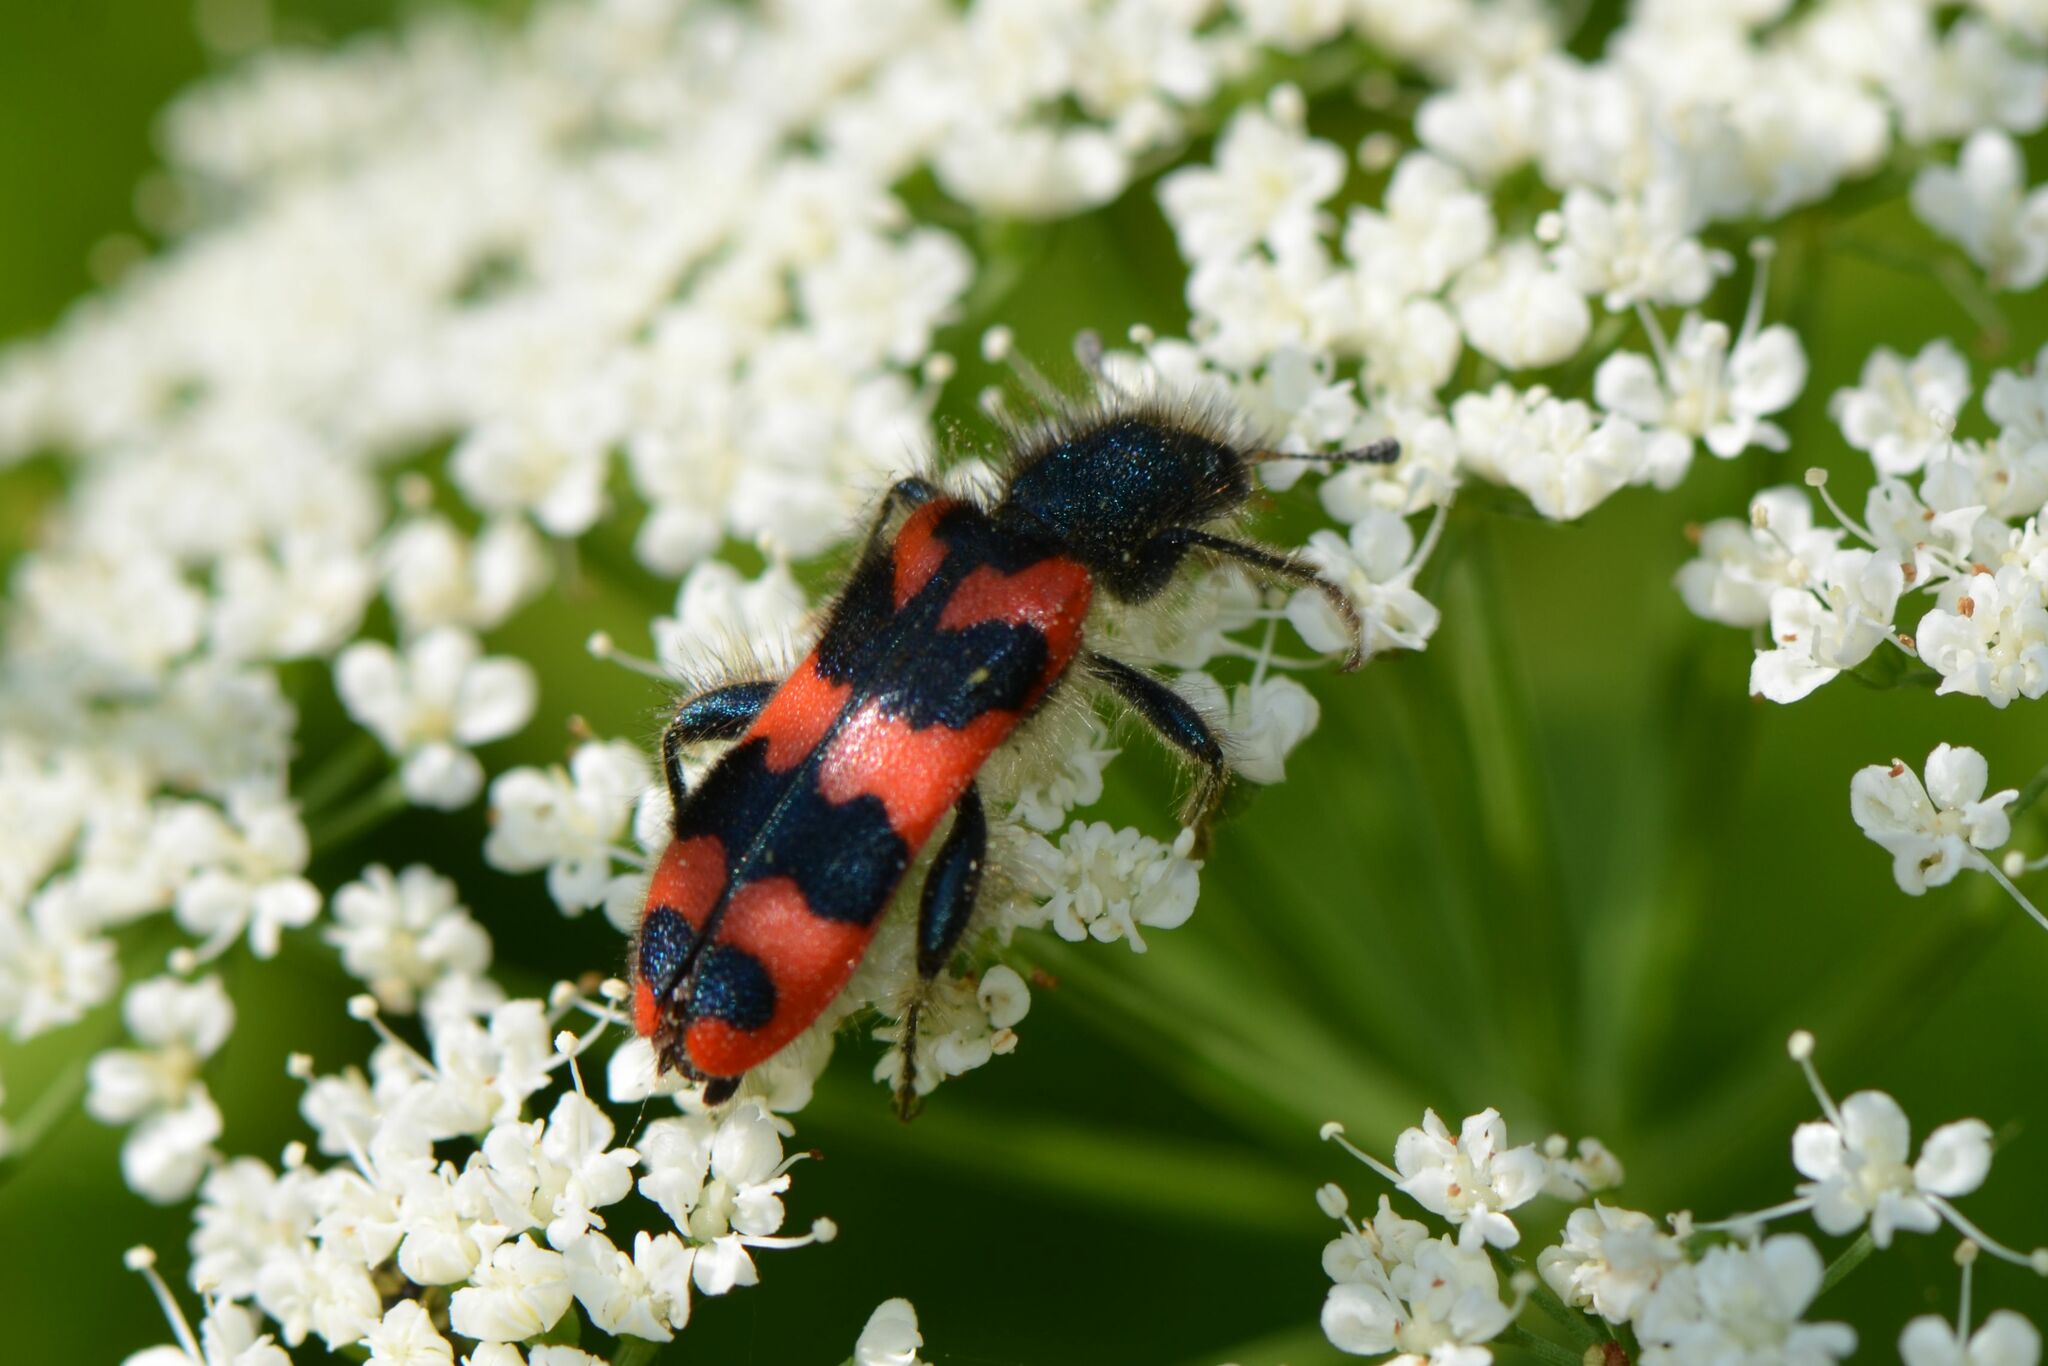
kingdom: Animalia
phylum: Arthropoda
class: Insecta
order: Coleoptera
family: Cleridae
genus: Trichodes
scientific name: Trichodes alvearius
